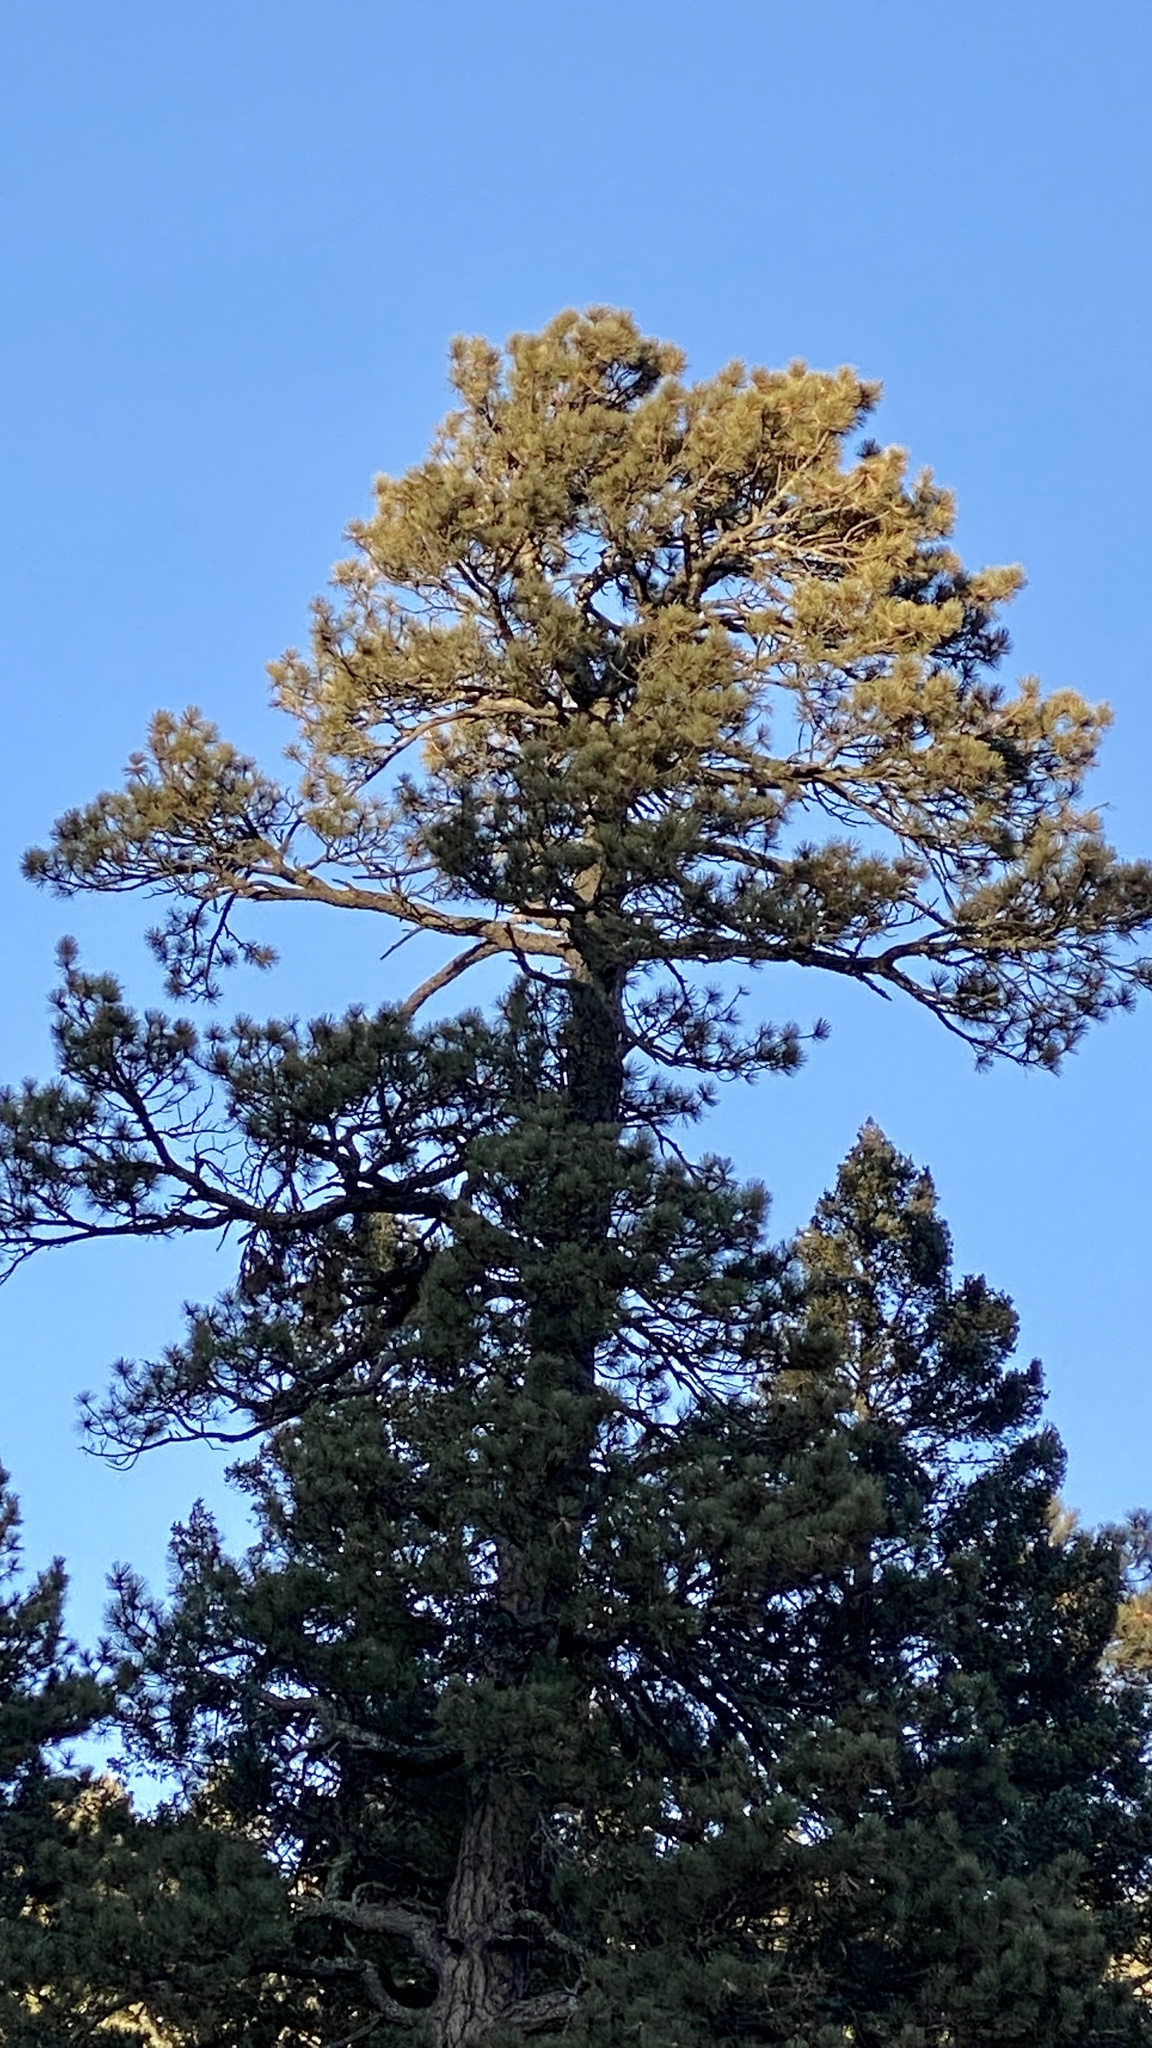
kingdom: Plantae
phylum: Tracheophyta
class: Pinopsida
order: Pinales
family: Pinaceae
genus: Pinus
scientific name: Pinus ponderosa
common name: Western yellow-pine
